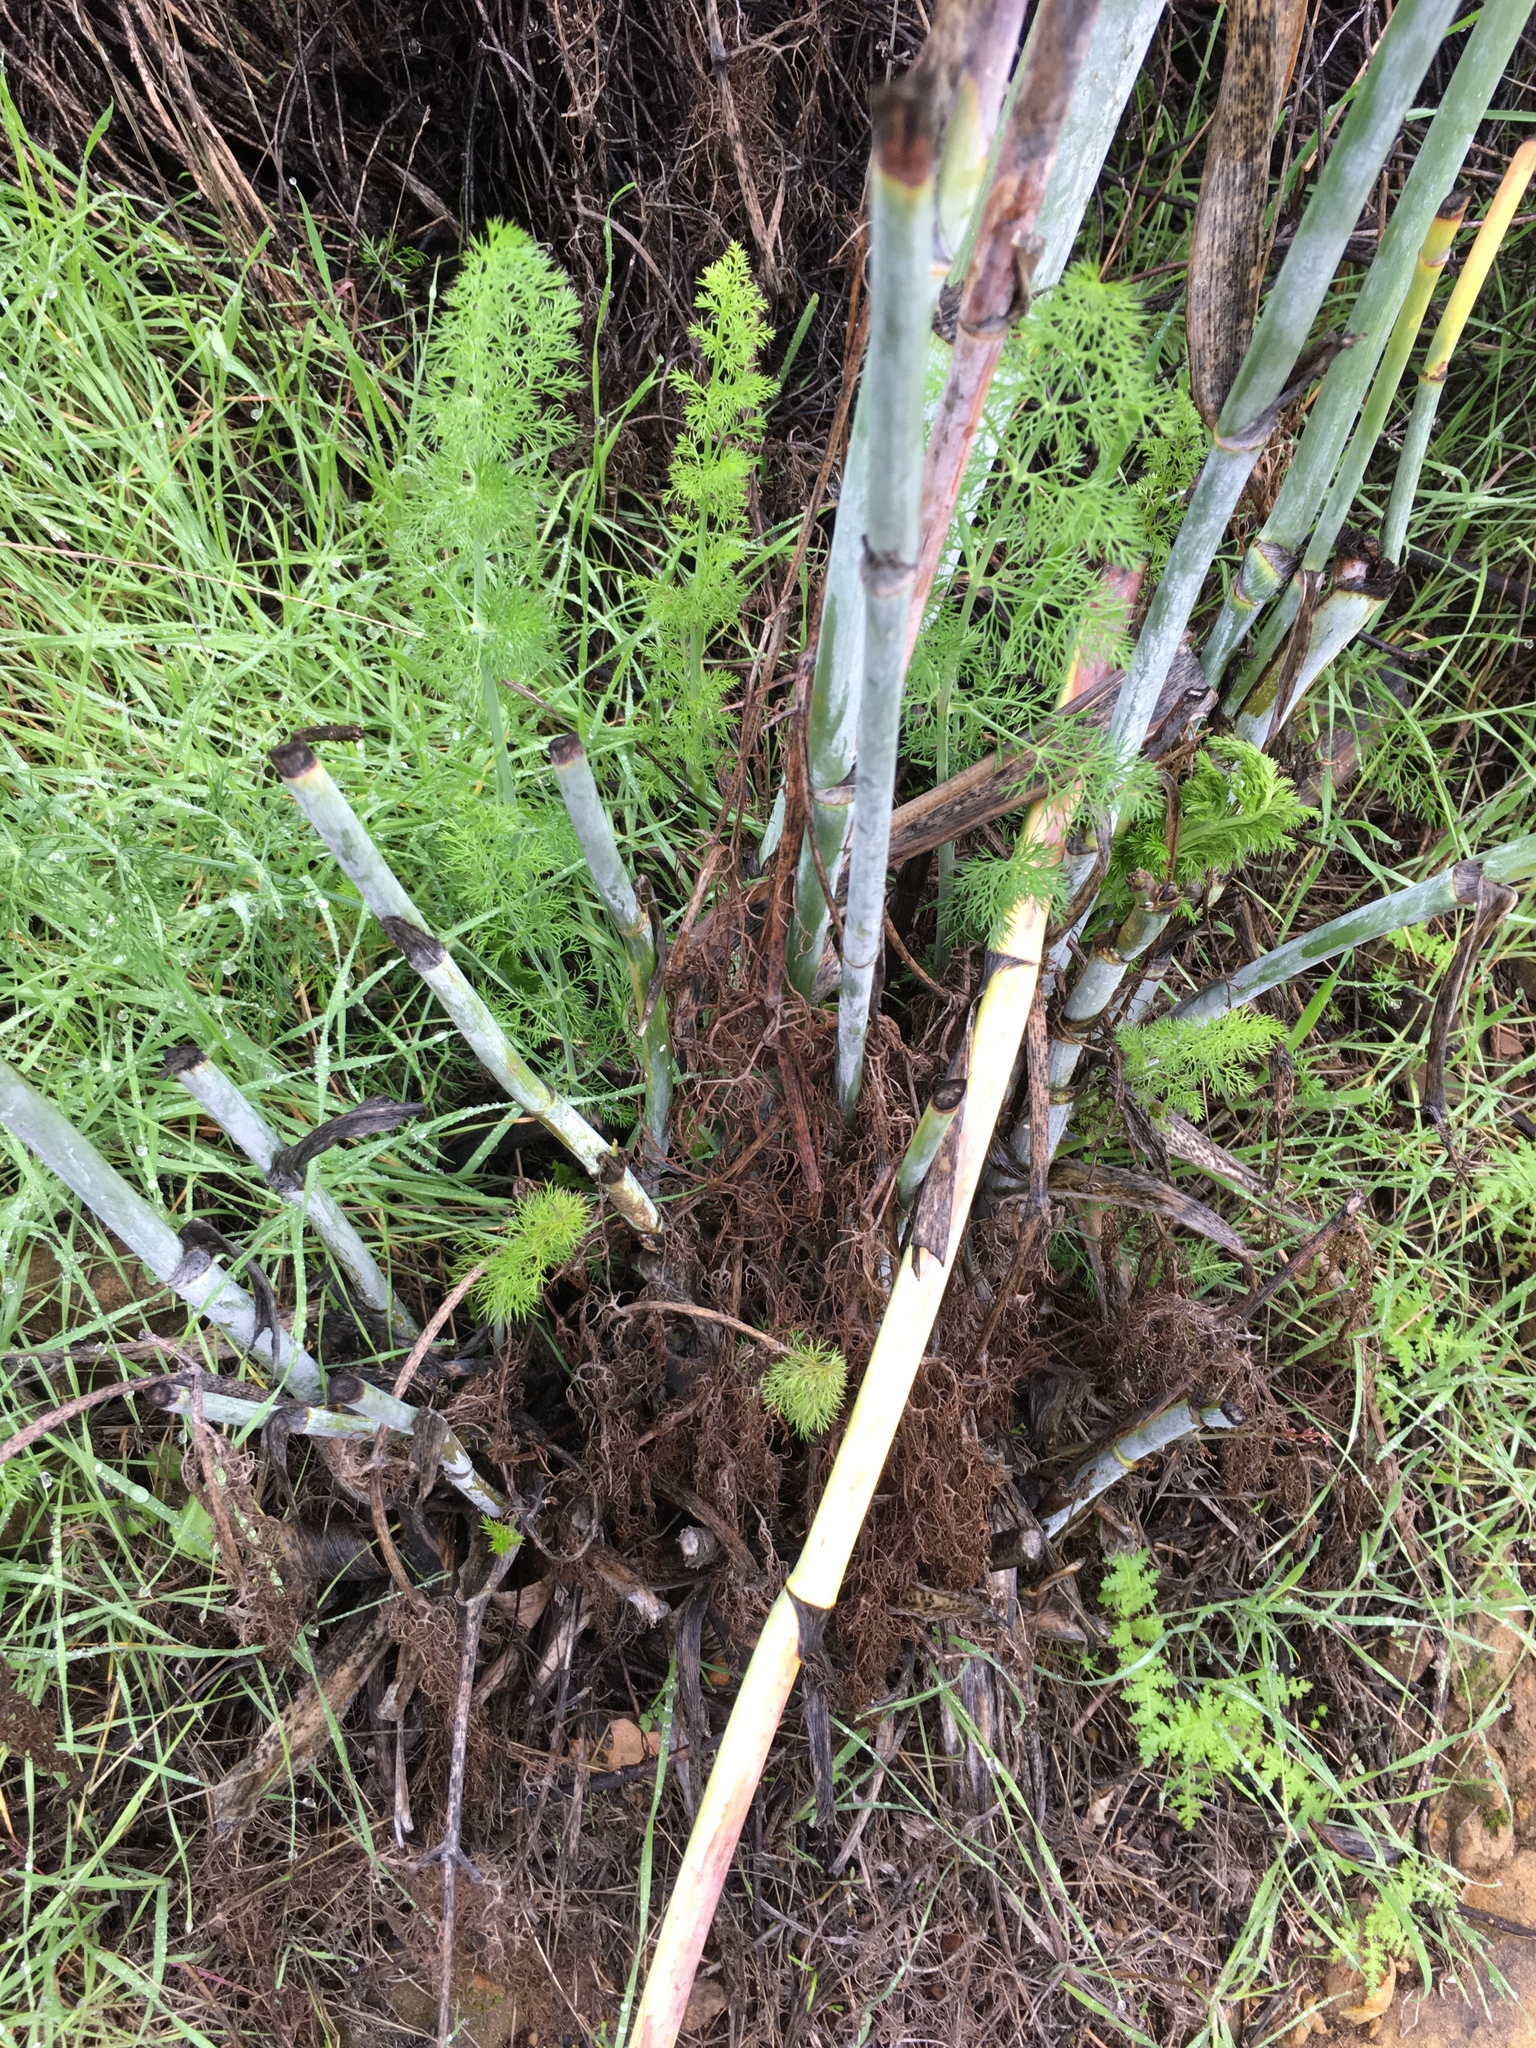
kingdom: Plantae
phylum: Tracheophyta
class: Magnoliopsida
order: Apiales
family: Apiaceae
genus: Foeniculum
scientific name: Foeniculum vulgare
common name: Fennel
